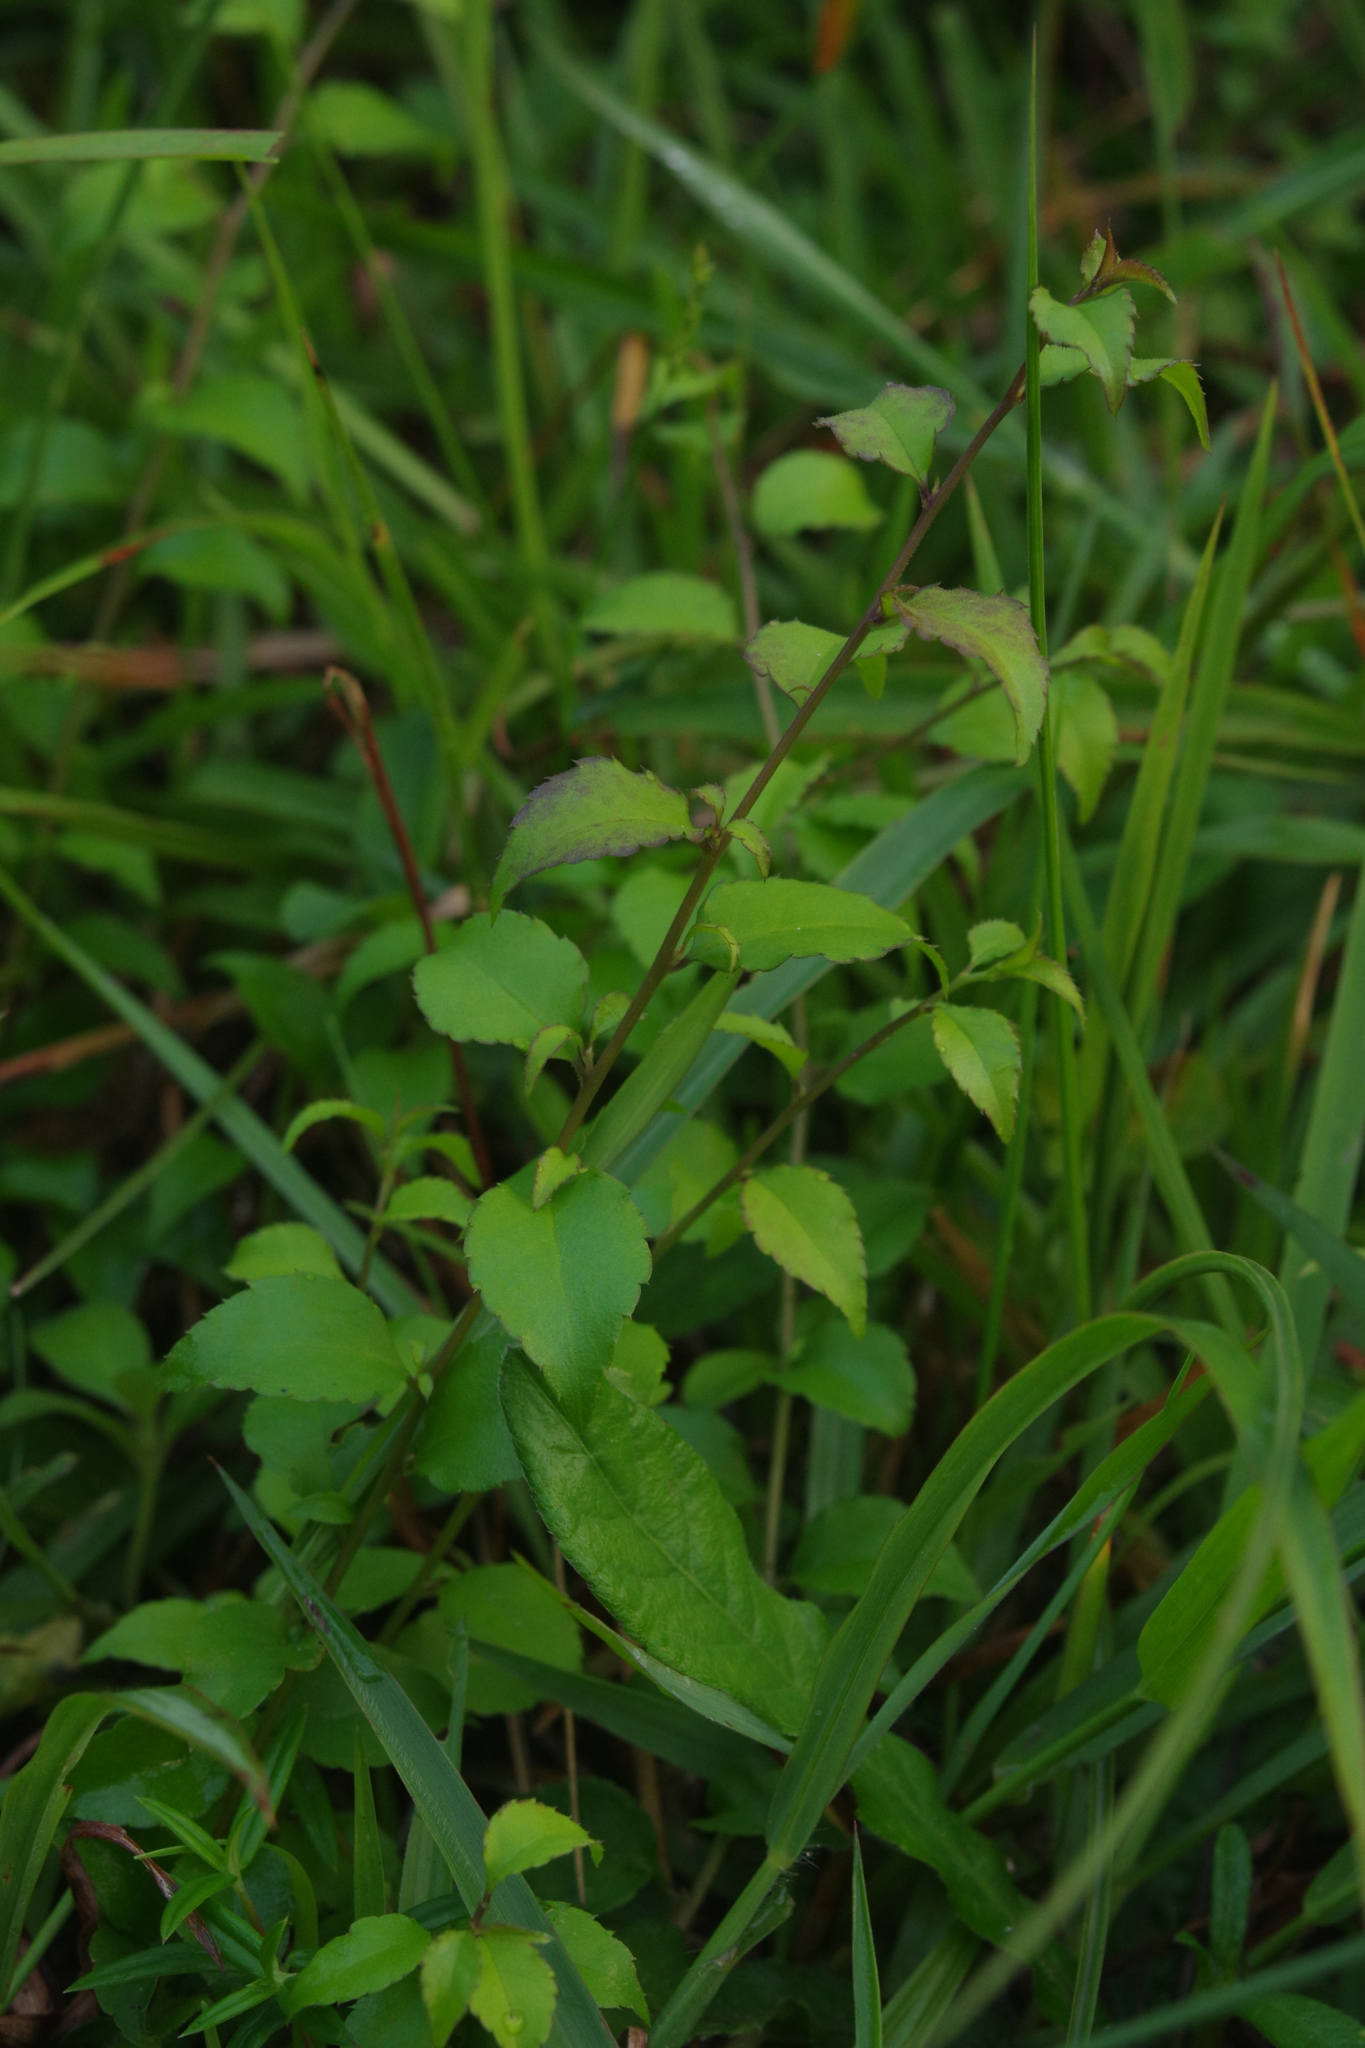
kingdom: Plantae
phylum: Tracheophyta
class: Magnoliopsida
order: Aquifoliales
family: Aquifoliaceae
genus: Ilex
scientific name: Ilex asprella
